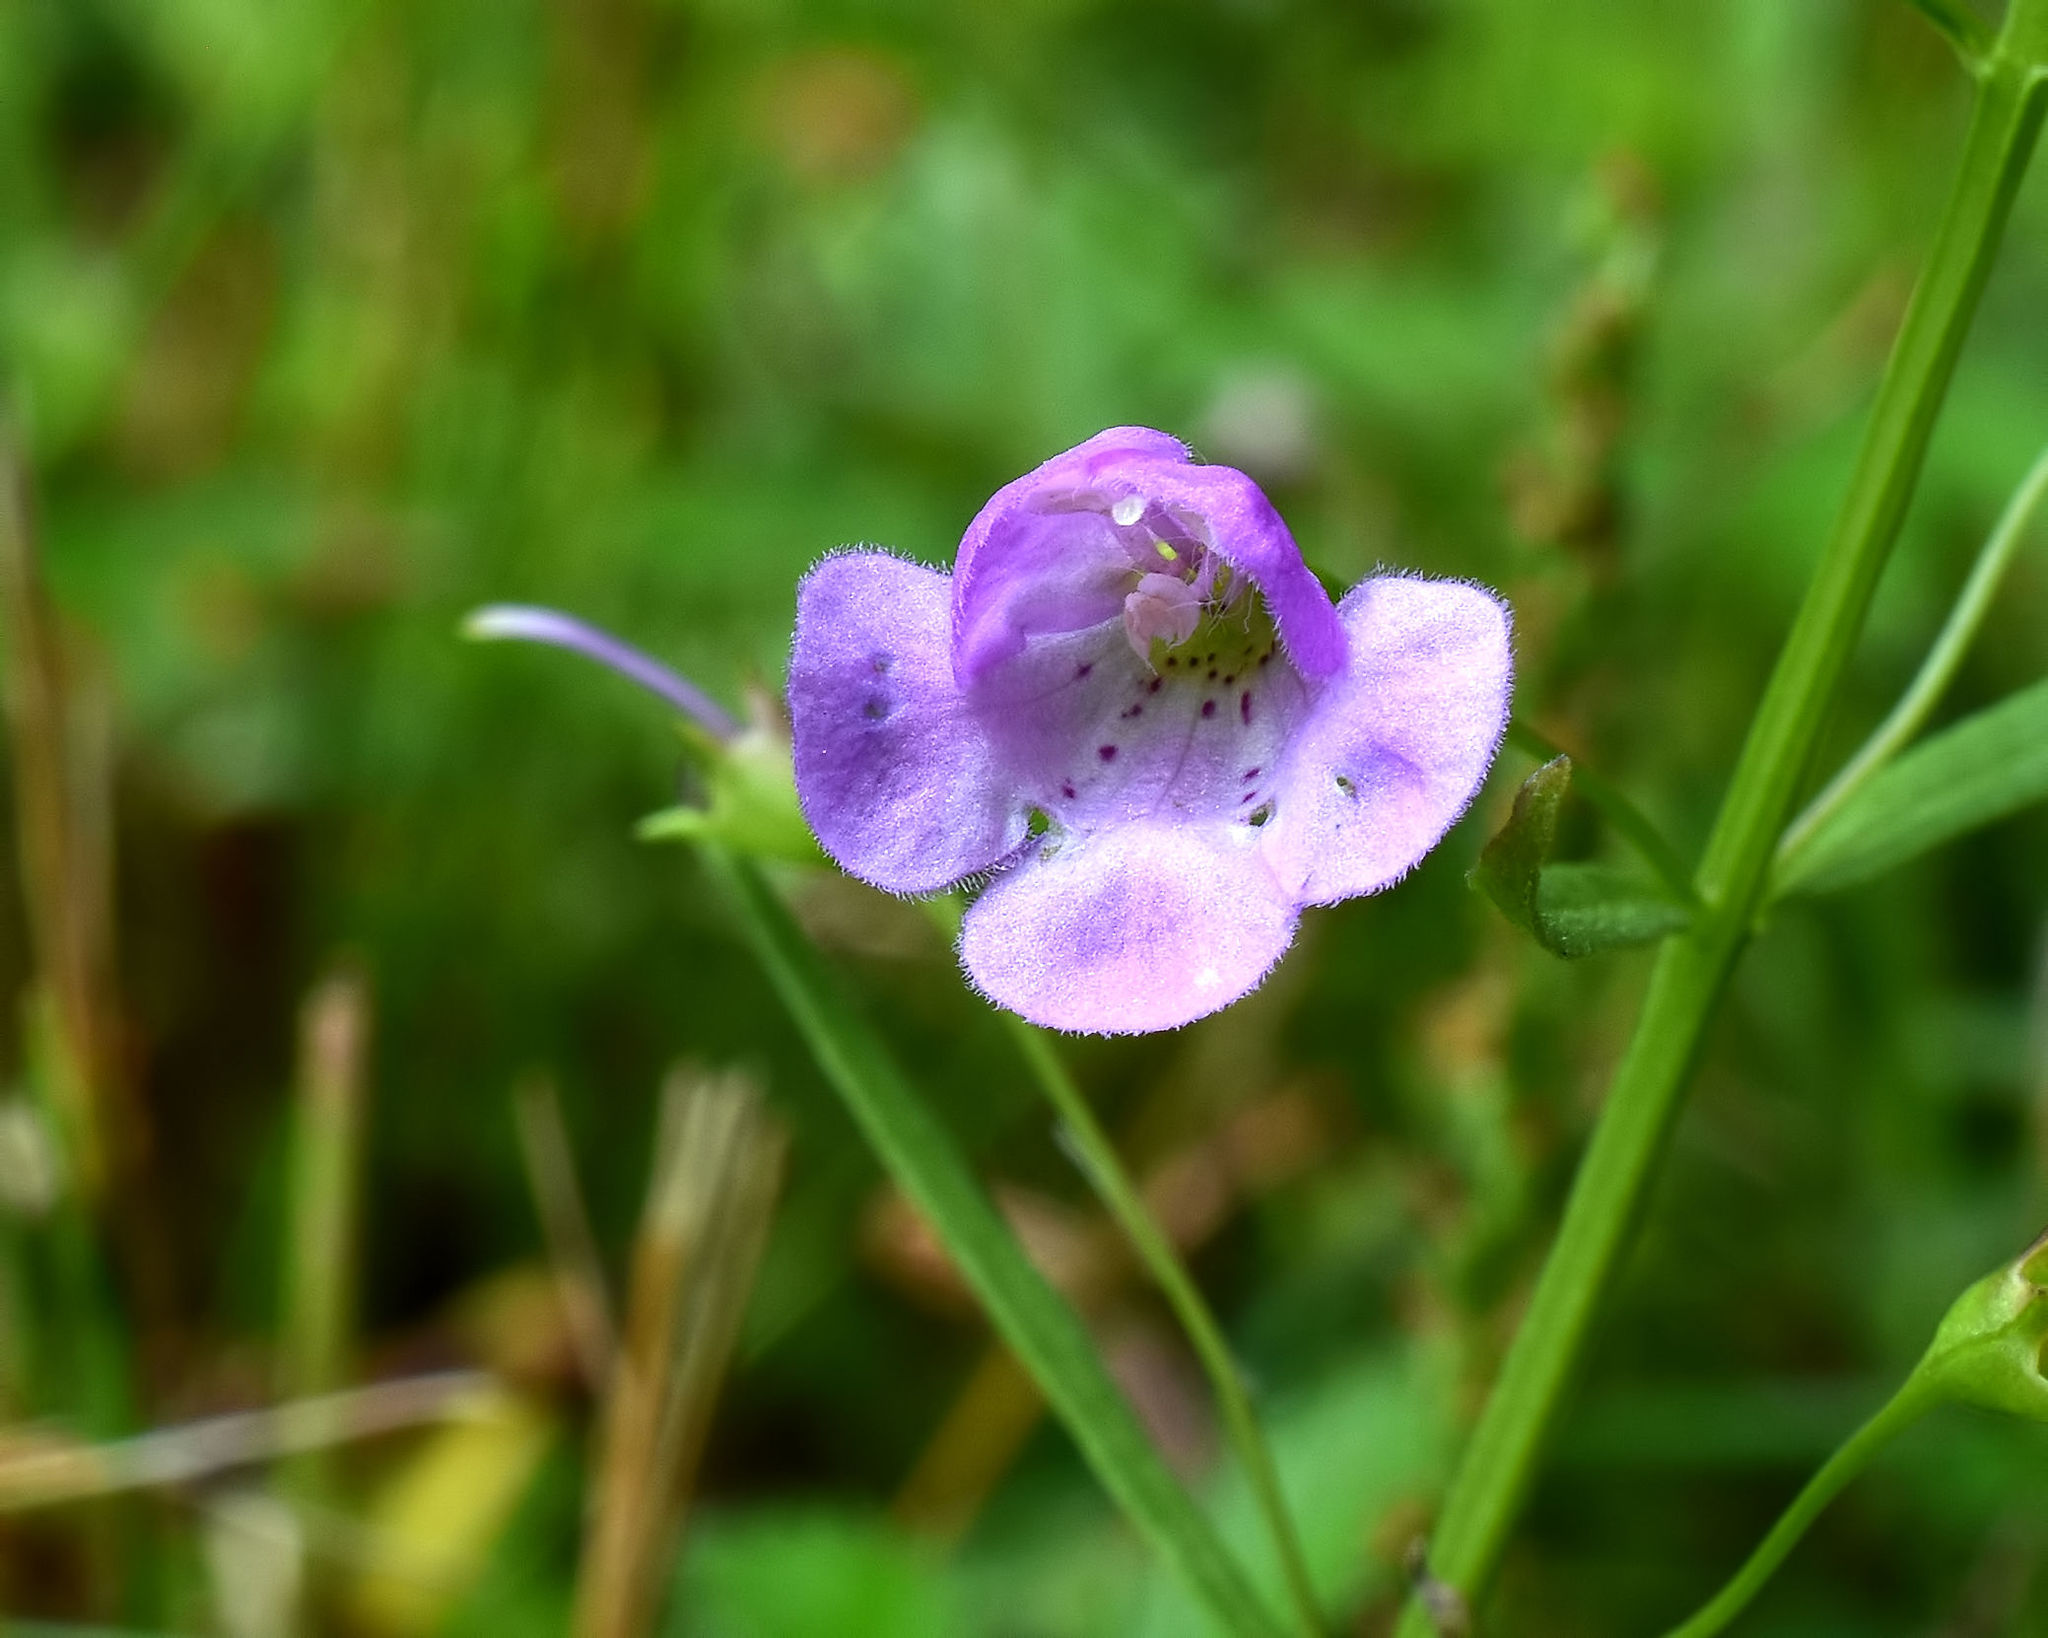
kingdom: Plantae
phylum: Tracheophyta
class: Magnoliopsida
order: Lamiales
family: Orobanchaceae
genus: Agalinis
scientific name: Agalinis tenuifolia
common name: Slender agalinis
